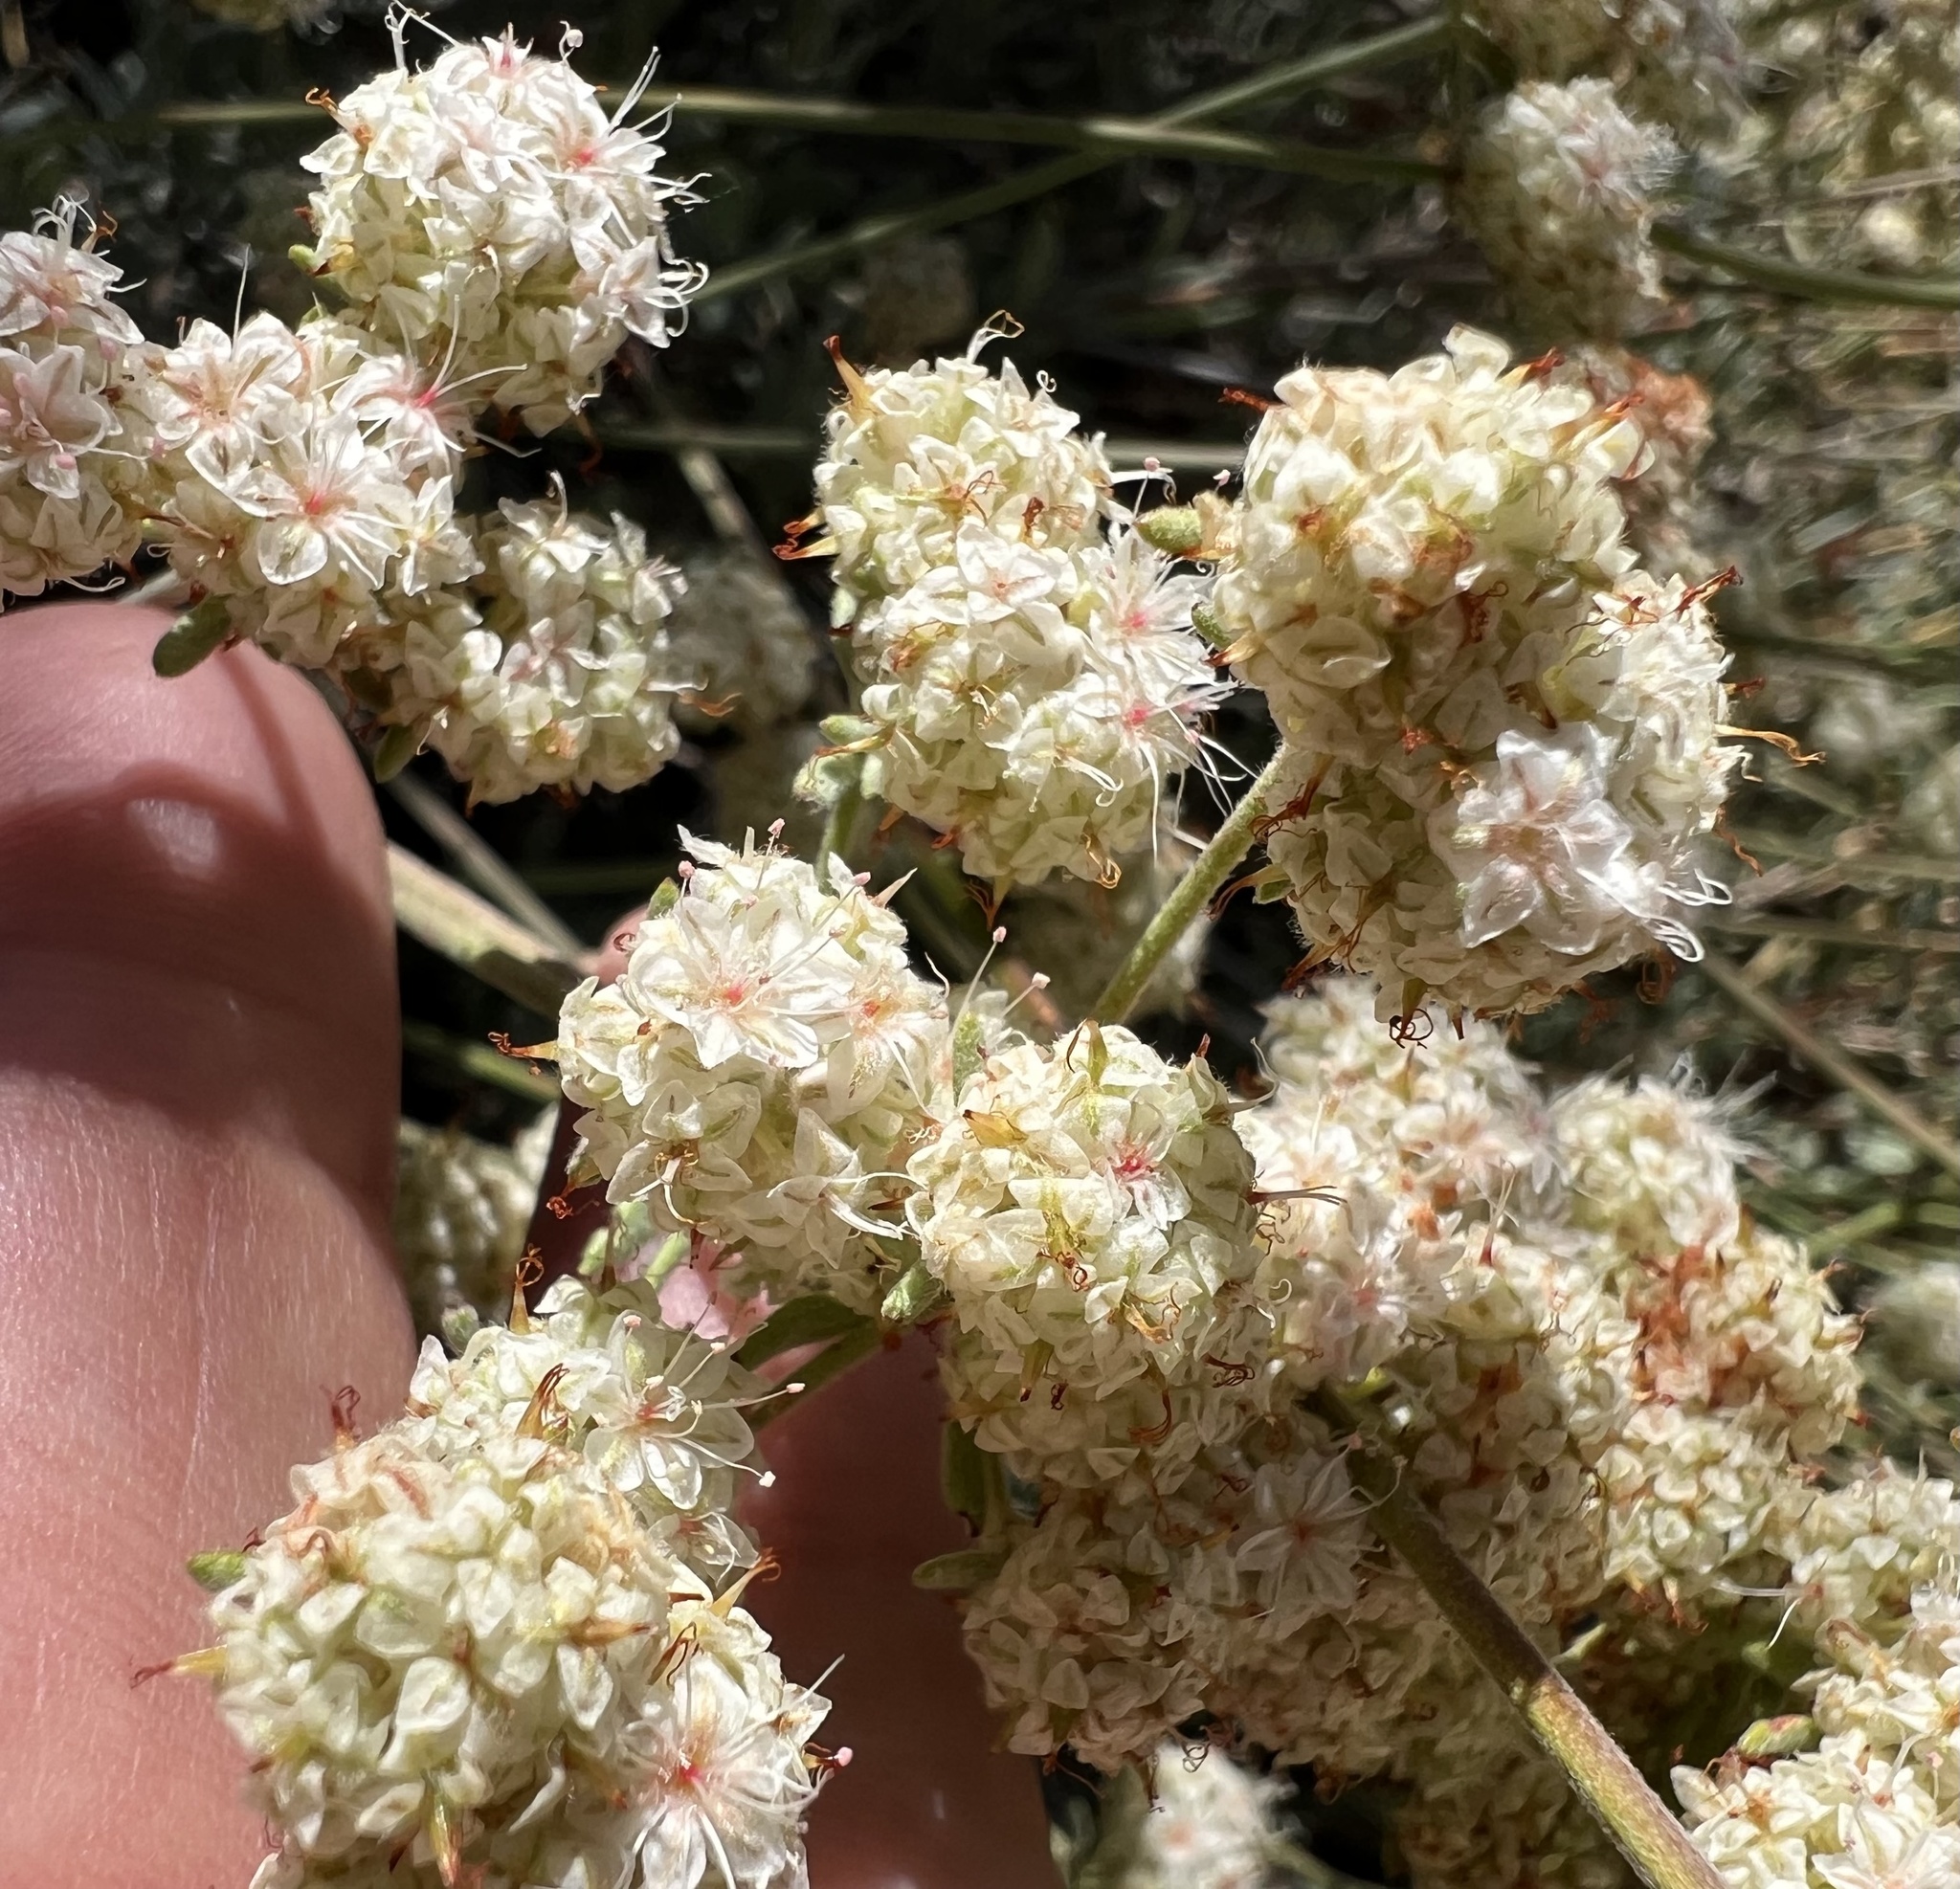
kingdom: Plantae
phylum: Tracheophyta
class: Magnoliopsida
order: Caryophyllales
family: Polygonaceae
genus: Eriogonum
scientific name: Eriogonum fasciculatum
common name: California wild buckwheat
